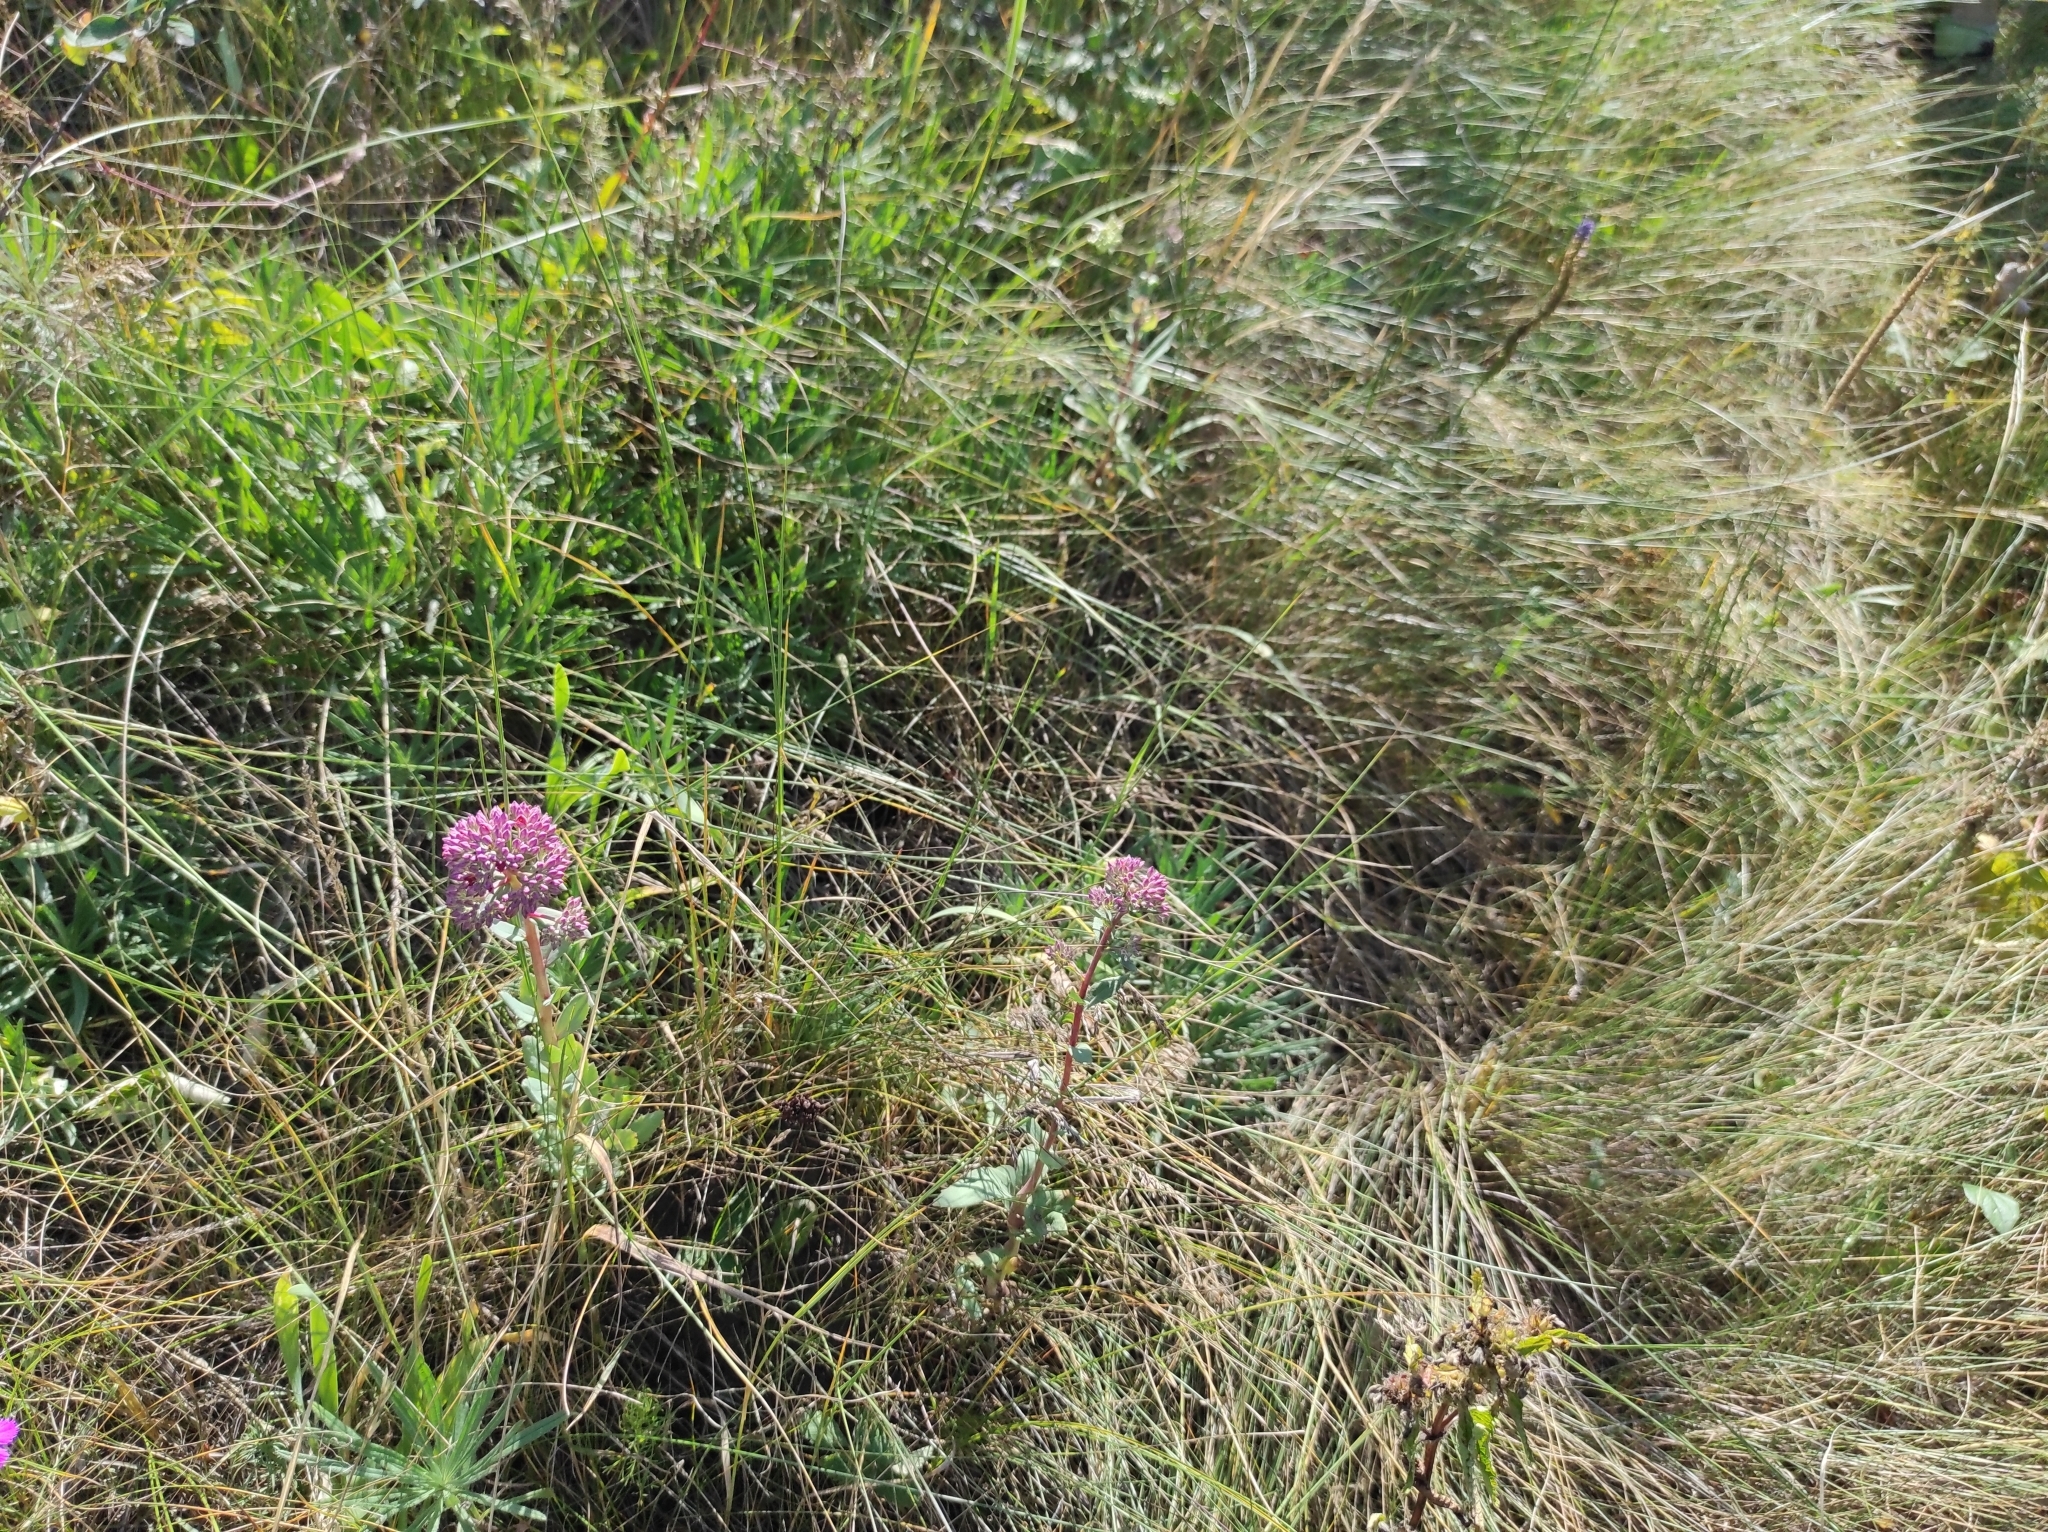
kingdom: Plantae
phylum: Tracheophyta
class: Magnoliopsida
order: Saxifragales
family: Crassulaceae
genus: Hylotelephium
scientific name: Hylotelephium telephium
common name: Live-forever
